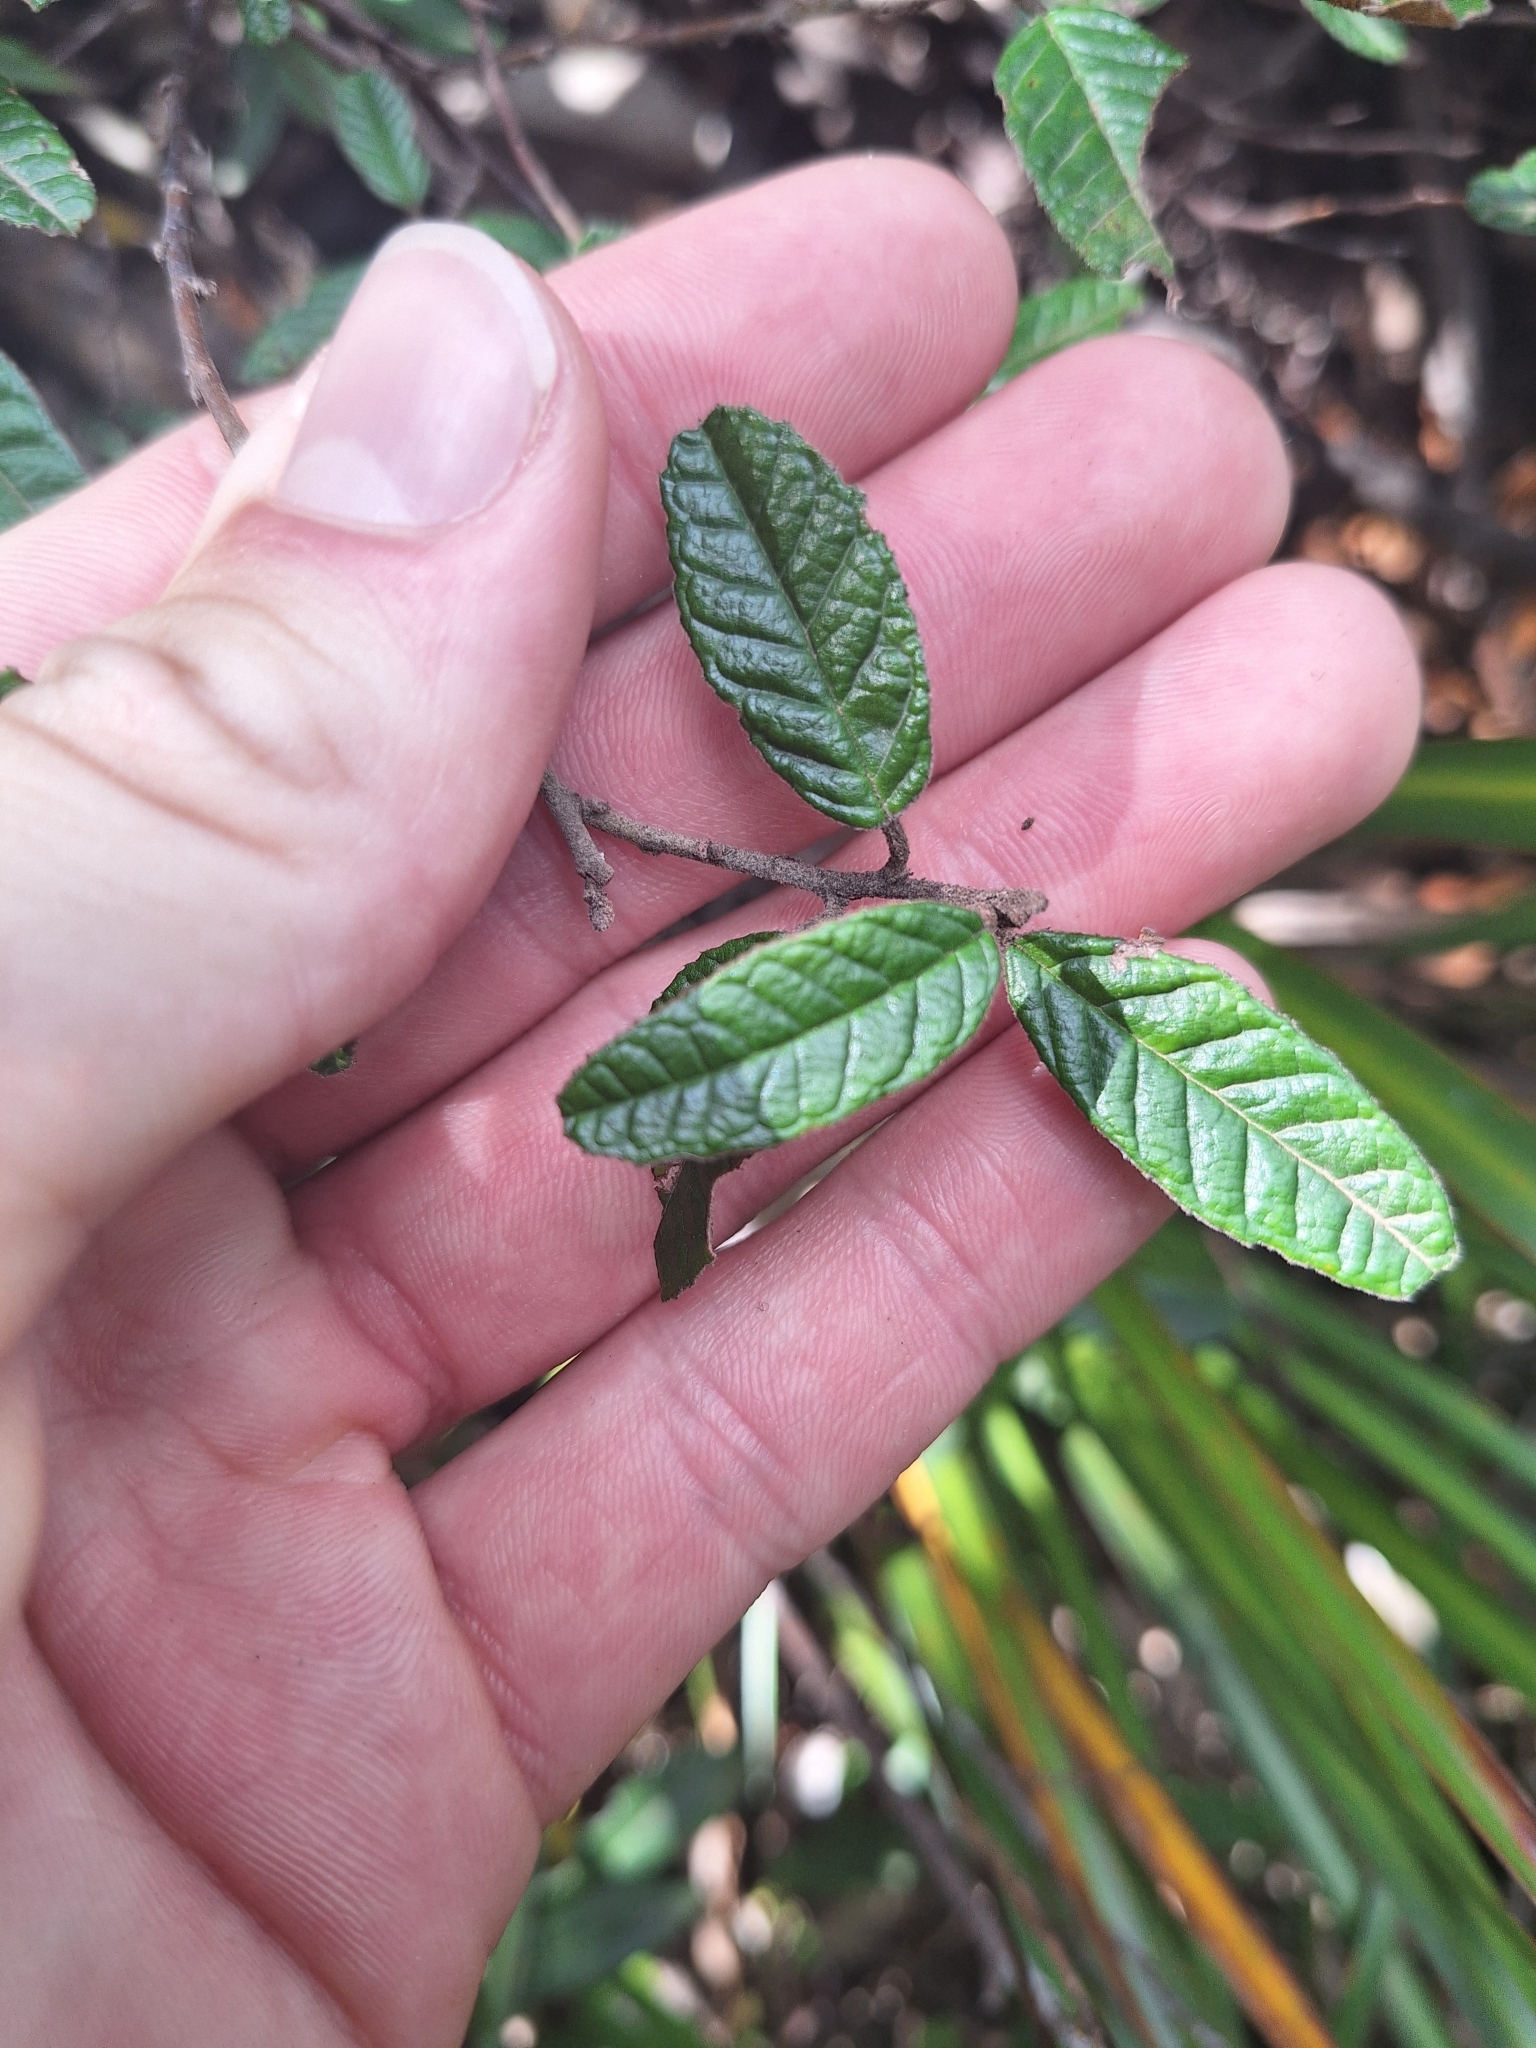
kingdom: Plantae
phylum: Tracheophyta
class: Magnoliopsida
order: Rosales
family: Rhamnaceae
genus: Pomaderris
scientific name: Pomaderris paniculosa
